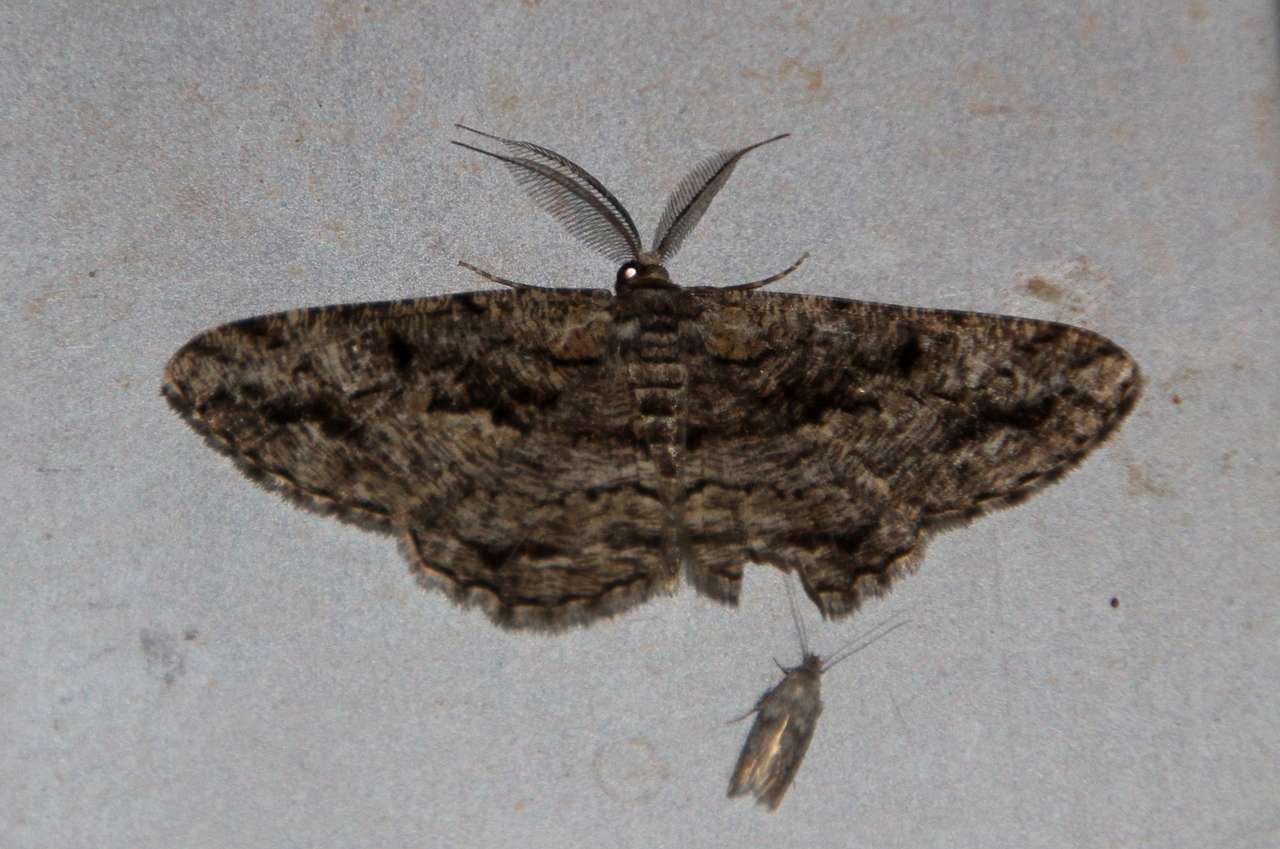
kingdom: Animalia
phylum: Arthropoda
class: Insecta
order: Lepidoptera
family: Geometridae
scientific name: Geometridae
